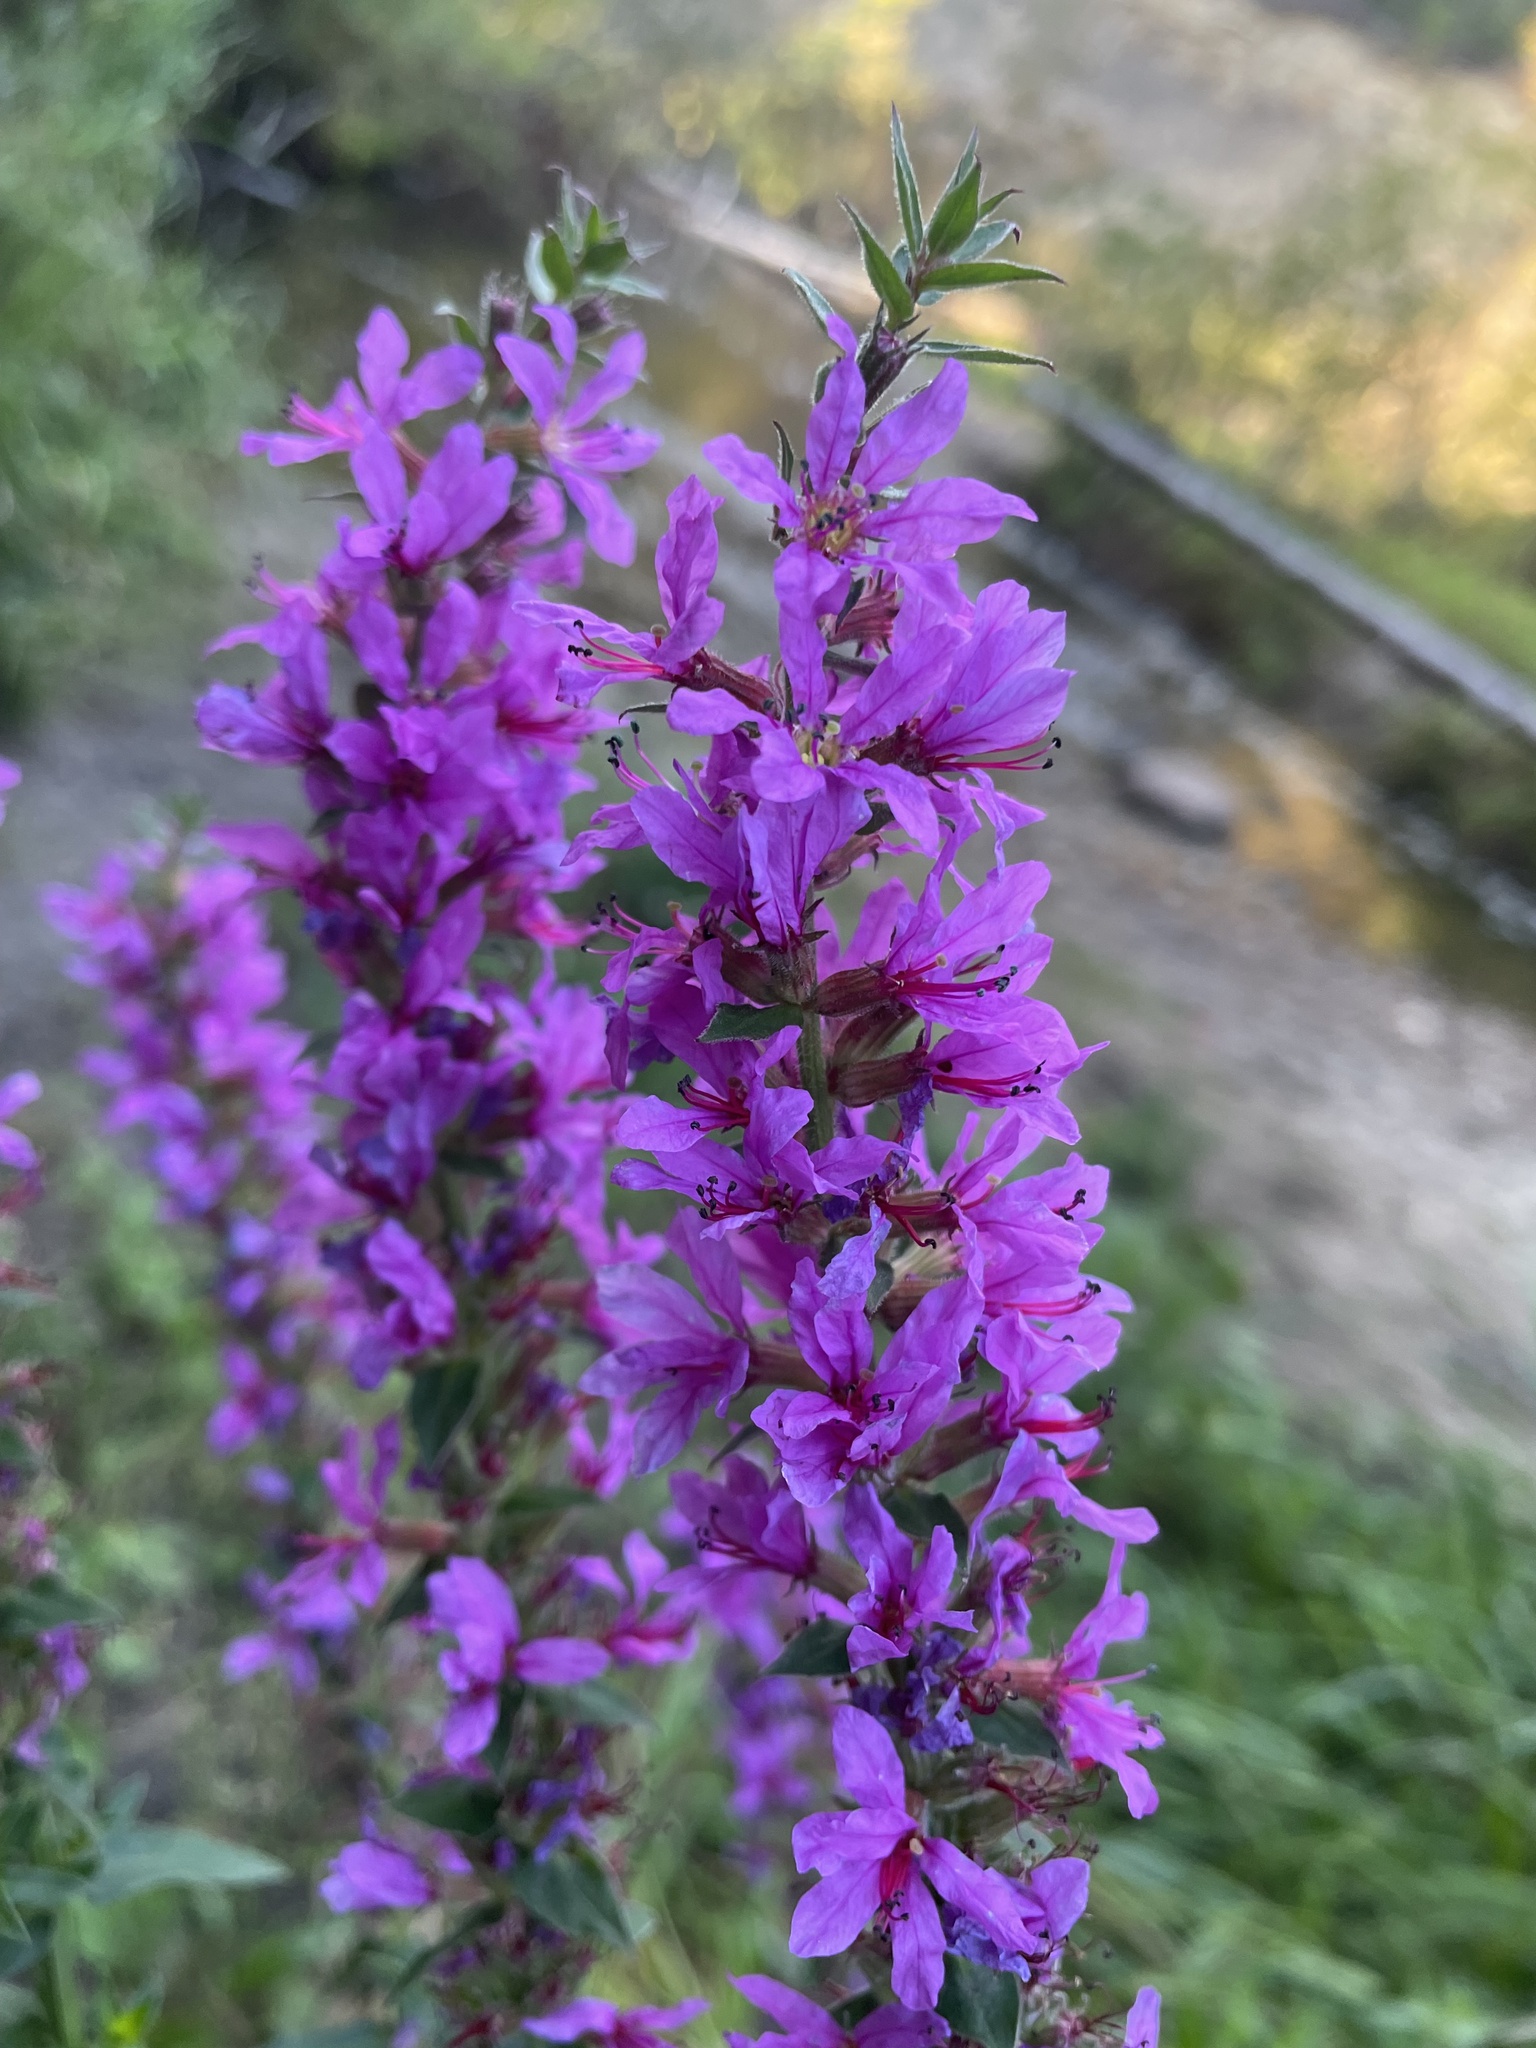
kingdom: Plantae
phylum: Tracheophyta
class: Magnoliopsida
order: Myrtales
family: Lythraceae
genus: Lythrum
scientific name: Lythrum salicaria
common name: Purple loosestrife
